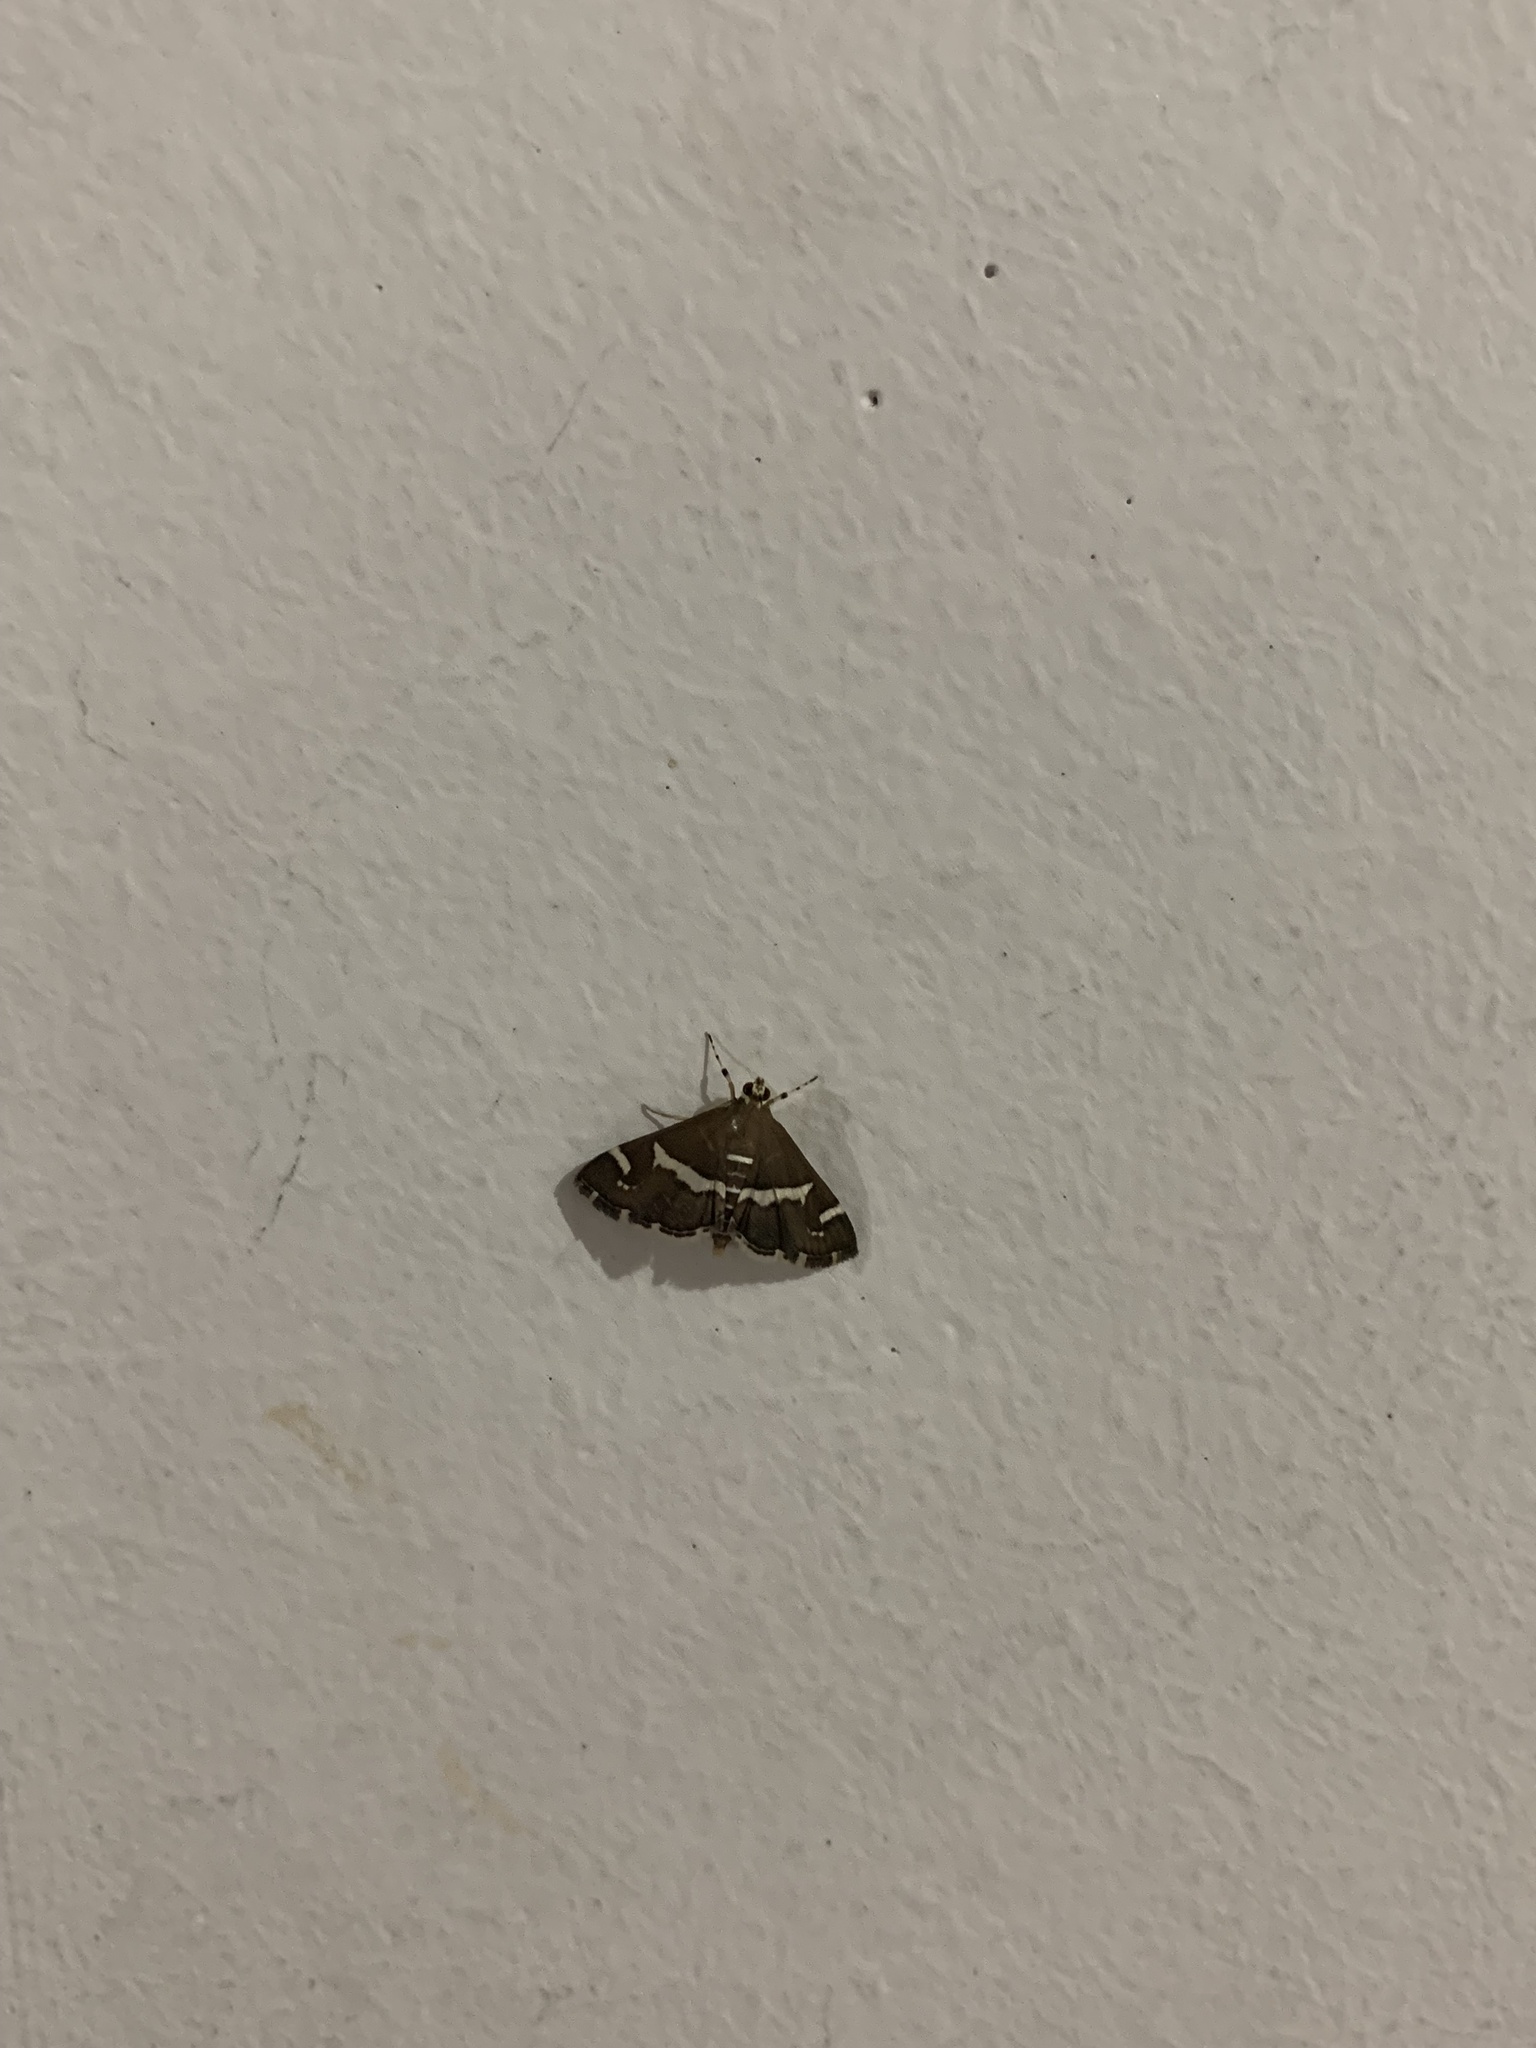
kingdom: Animalia
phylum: Arthropoda
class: Insecta
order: Lepidoptera
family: Crambidae
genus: Spoladea
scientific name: Spoladea recurvalis
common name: Beet webworm moth
